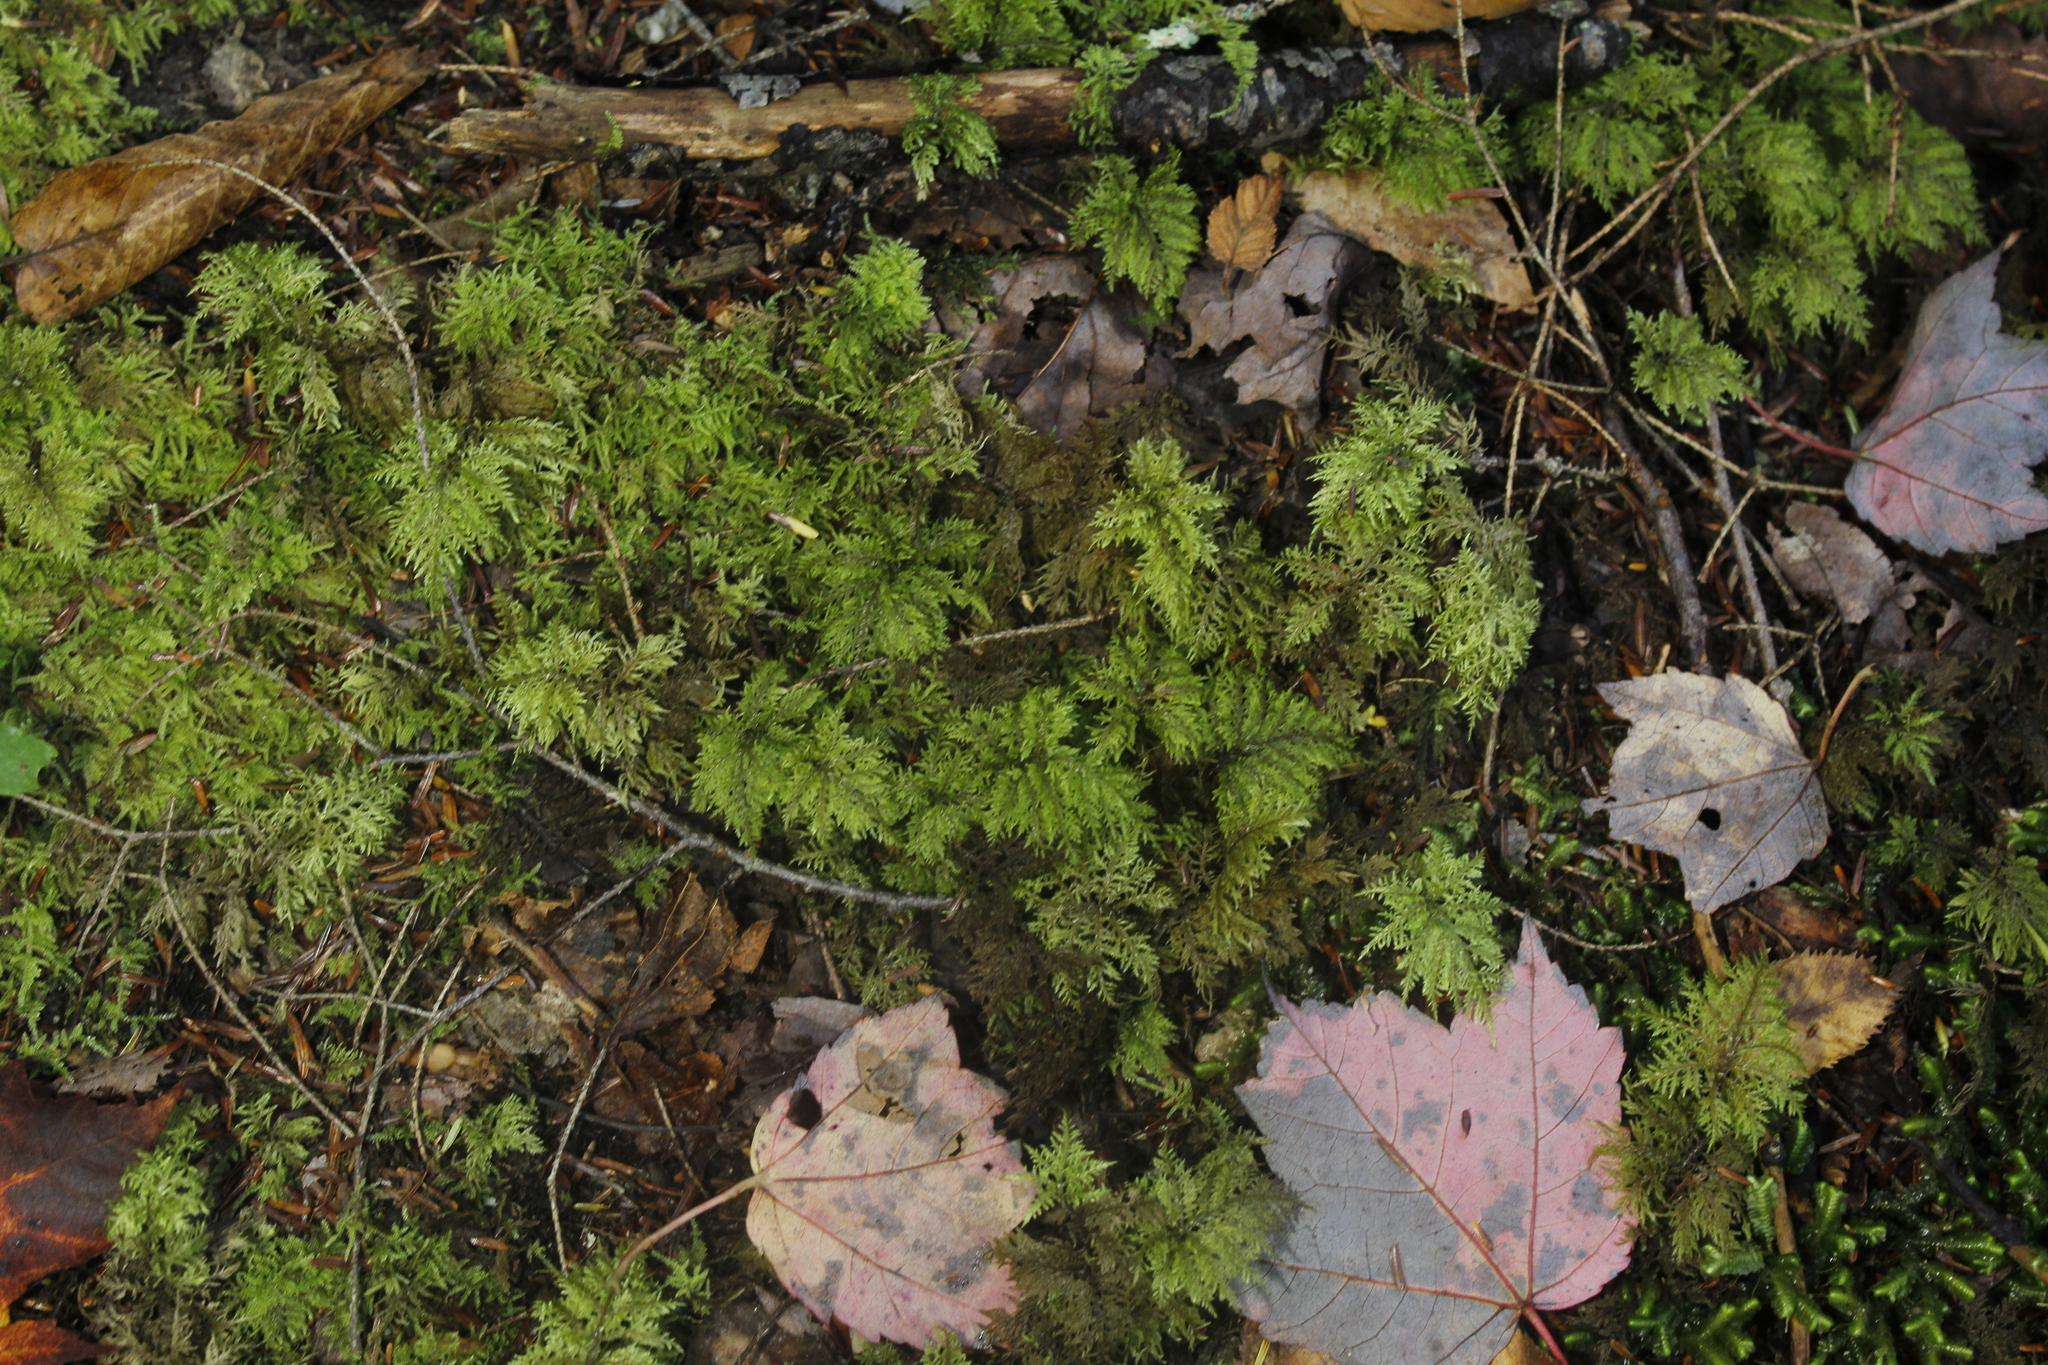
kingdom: Plantae
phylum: Bryophyta
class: Bryopsida
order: Hypnales
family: Hylocomiaceae
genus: Hylocomium
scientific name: Hylocomium splendens
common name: Stairstep moss
